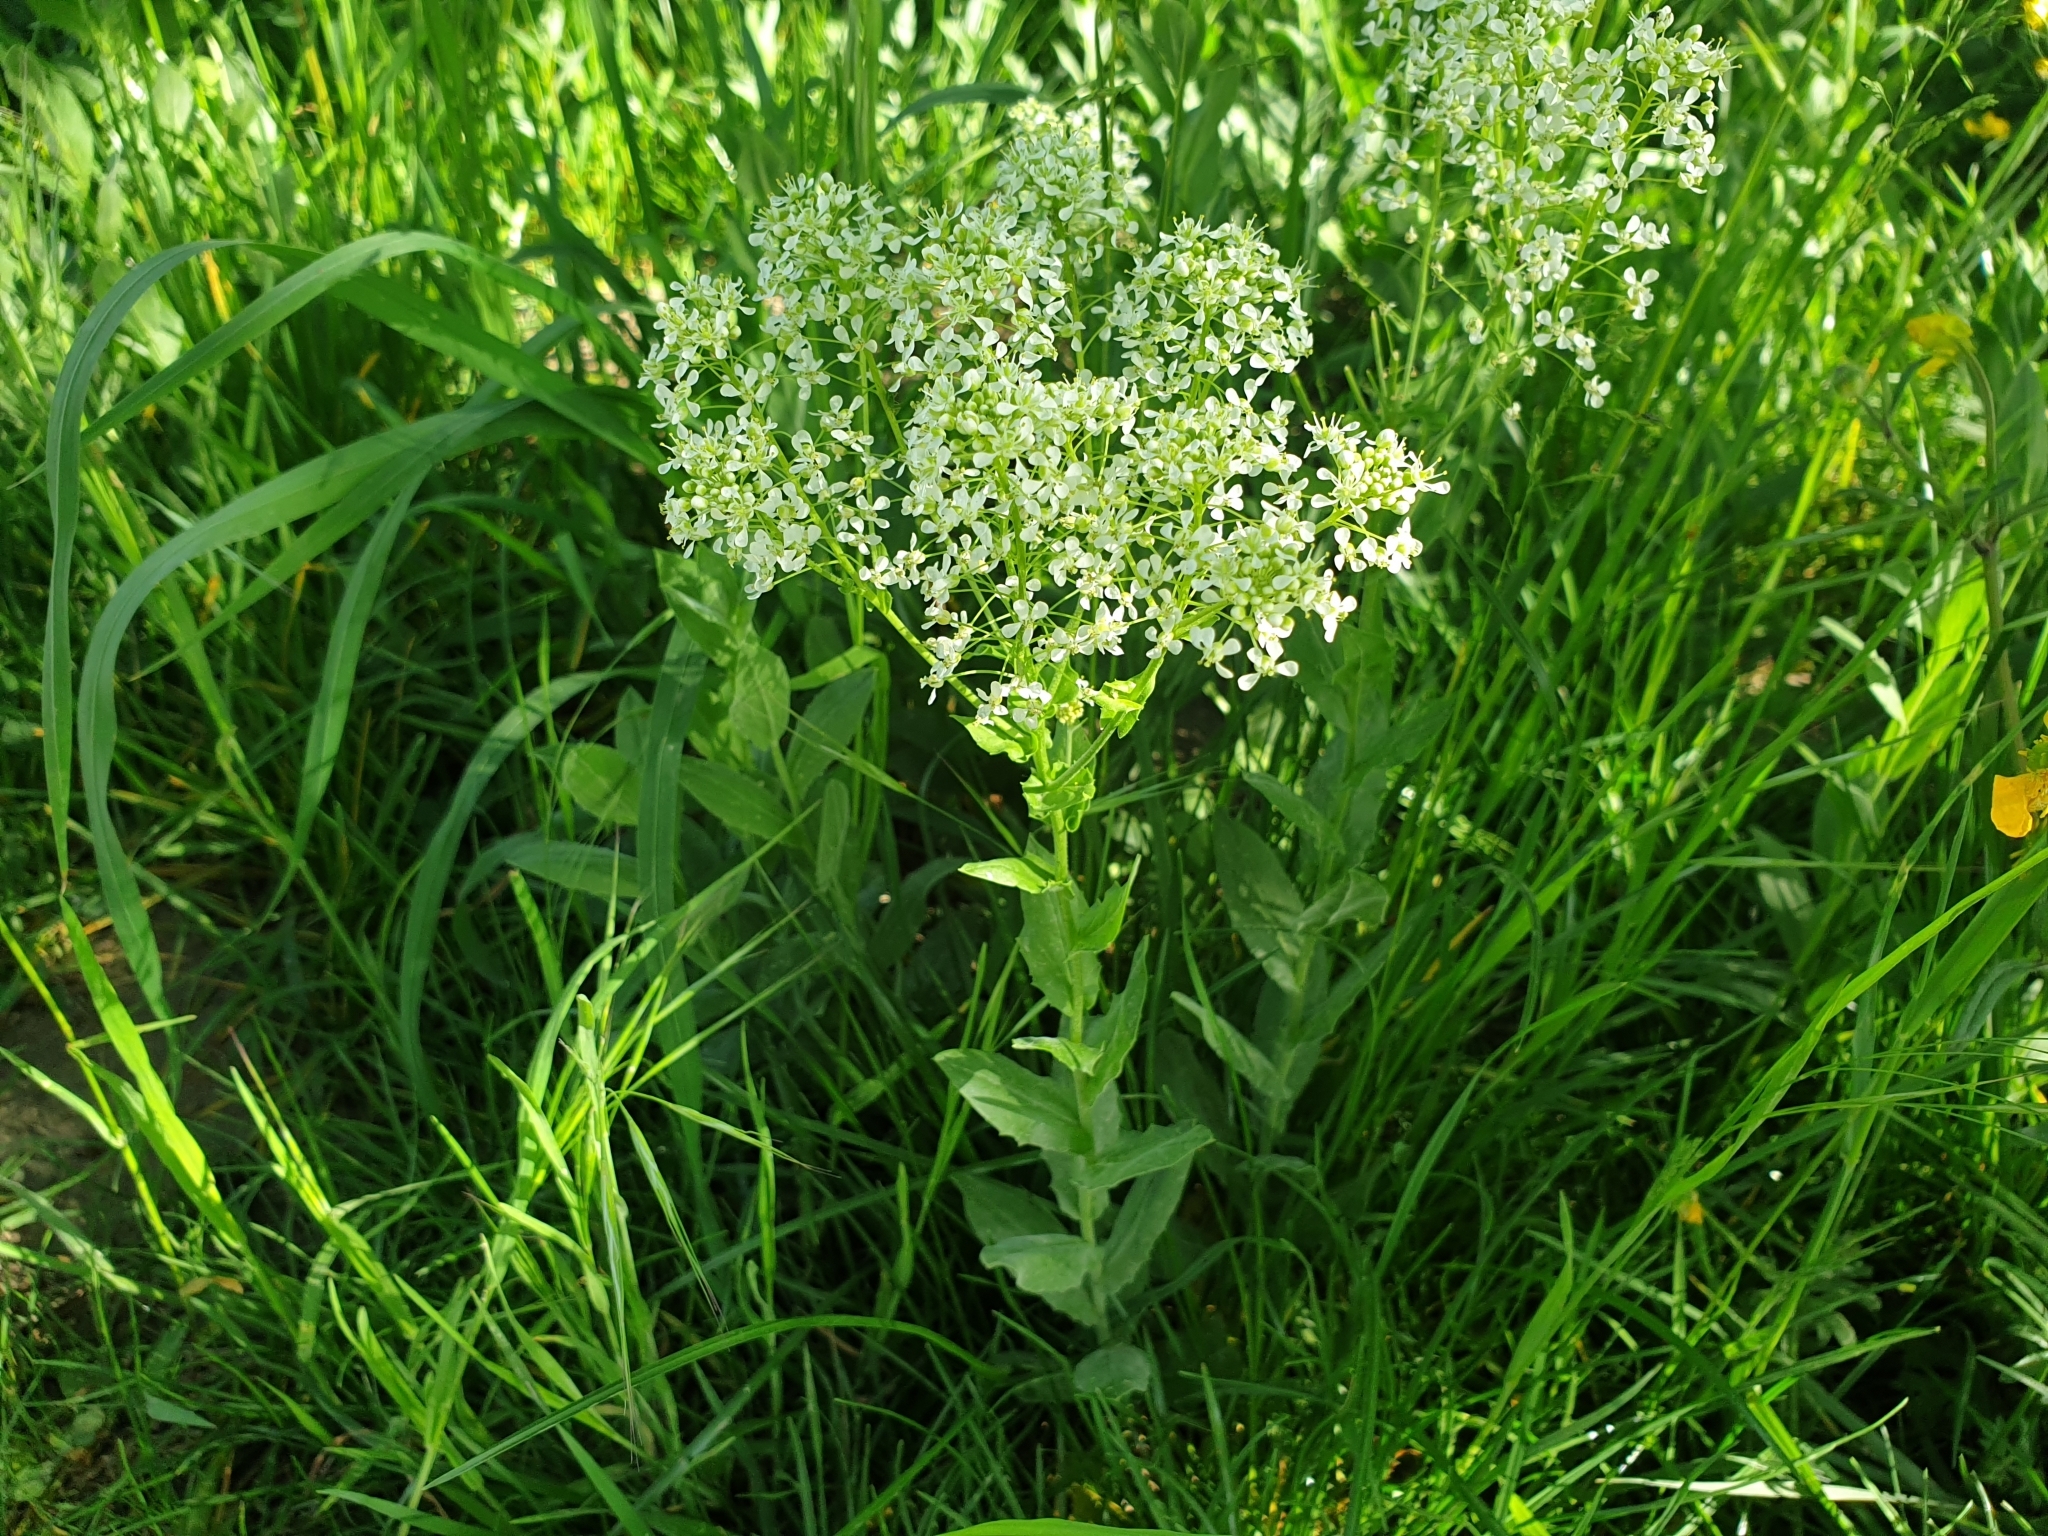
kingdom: Plantae
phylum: Tracheophyta
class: Magnoliopsida
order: Brassicales
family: Brassicaceae
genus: Lepidium
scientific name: Lepidium draba
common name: Hoary cress
